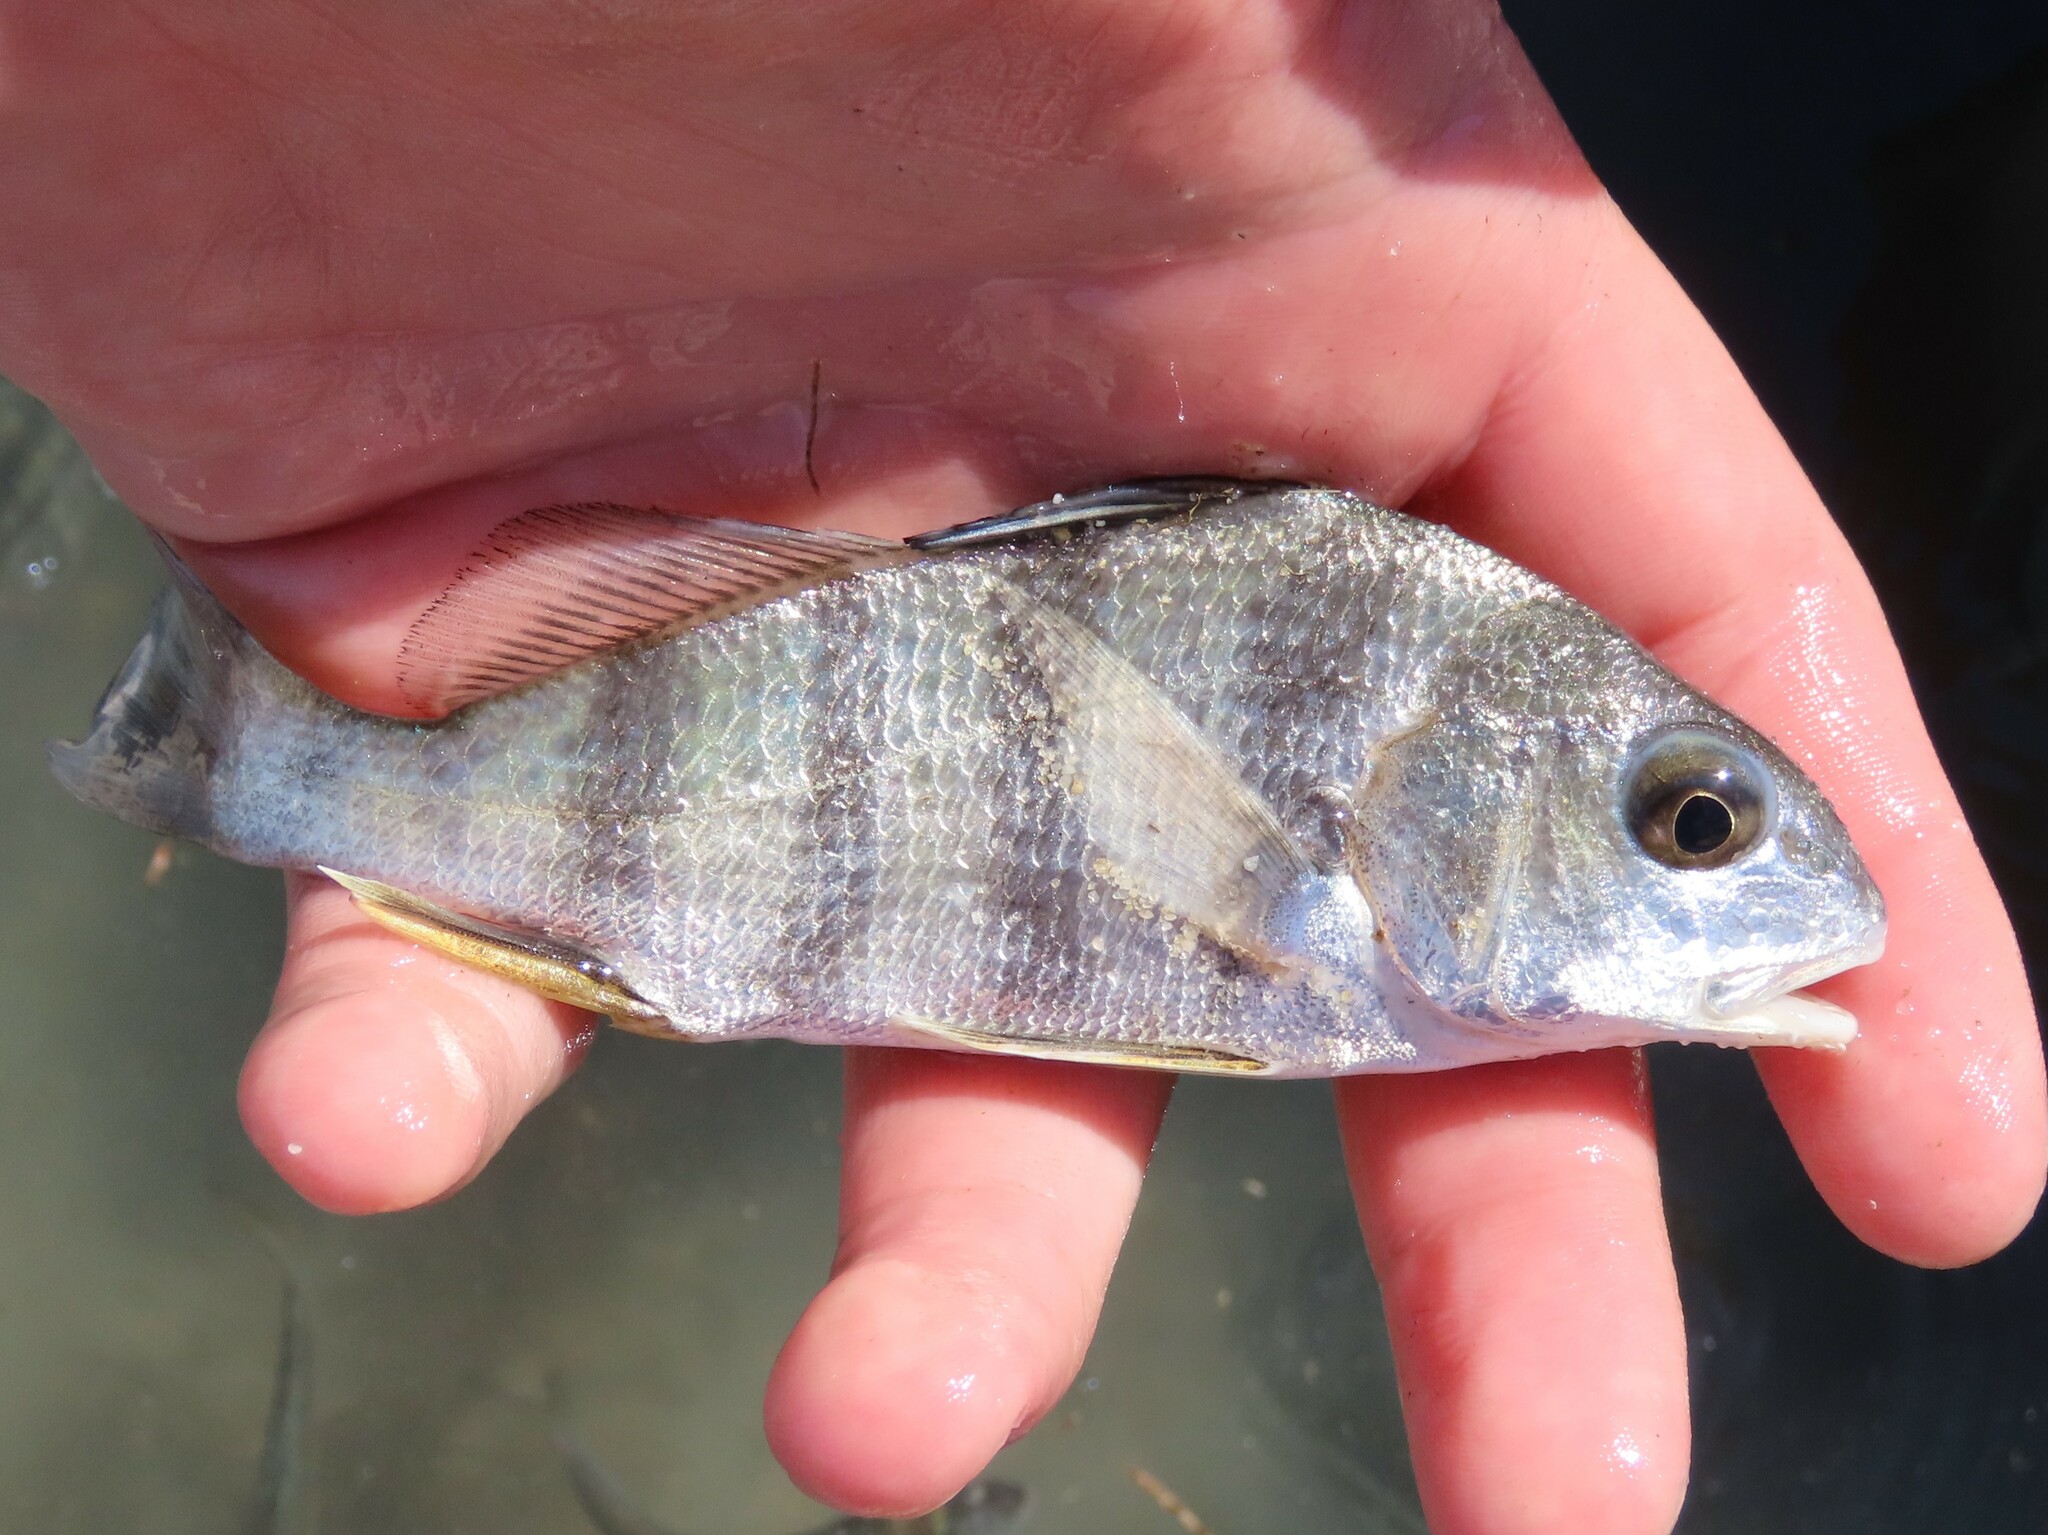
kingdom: Animalia
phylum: Chordata
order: Perciformes
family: Sciaenidae
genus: Pogonias
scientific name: Pogonias cromis
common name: Black drum
